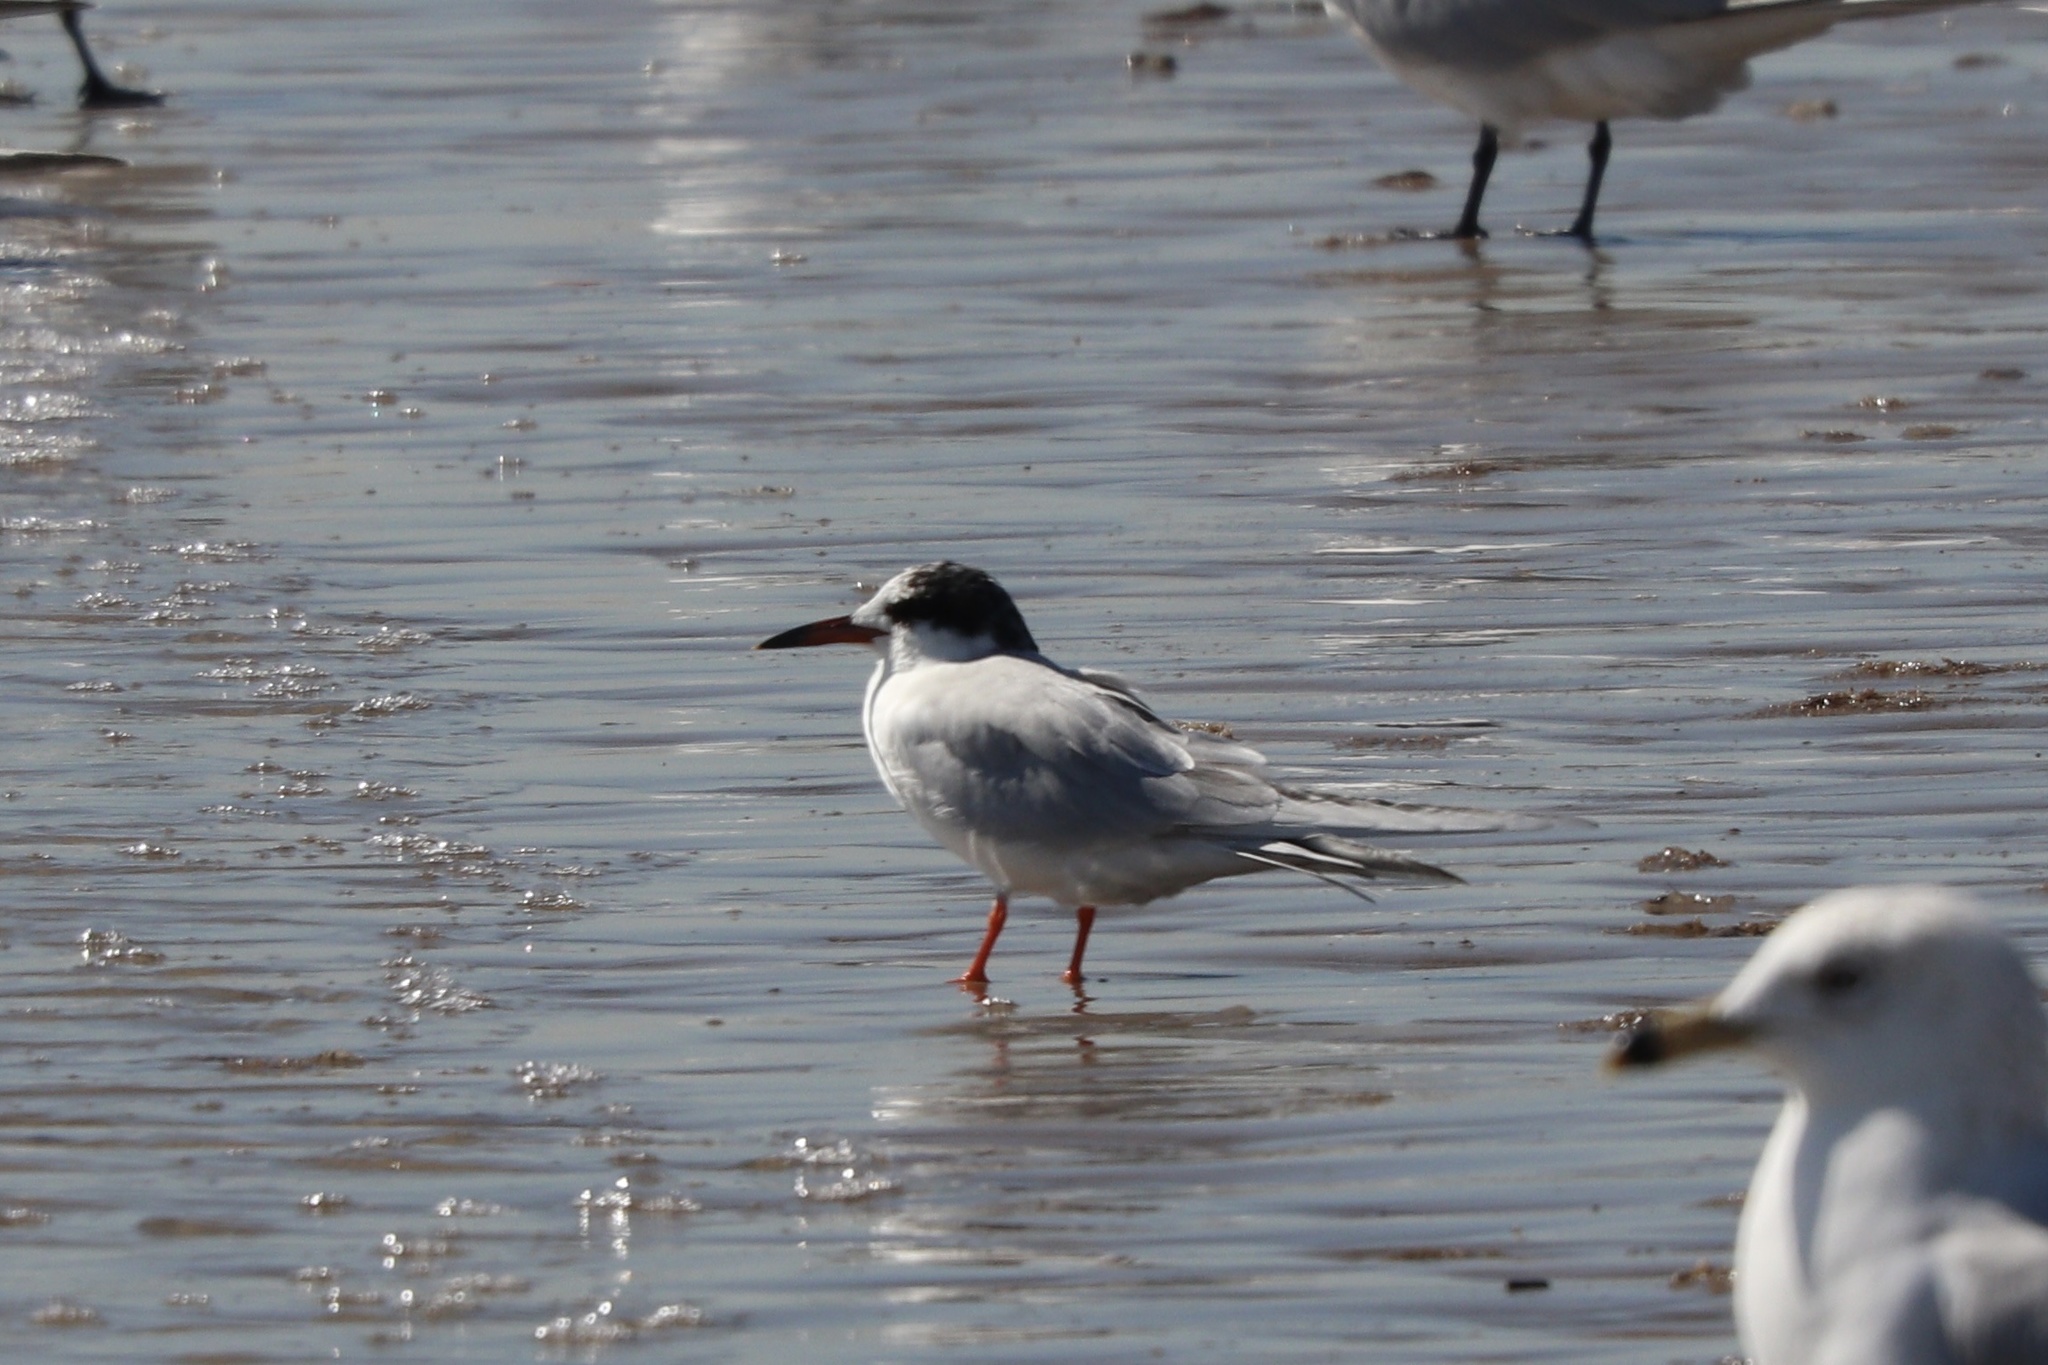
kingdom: Animalia
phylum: Chordata
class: Aves
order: Charadriiformes
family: Laridae
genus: Sterna
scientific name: Sterna forsteri
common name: Forster's tern
